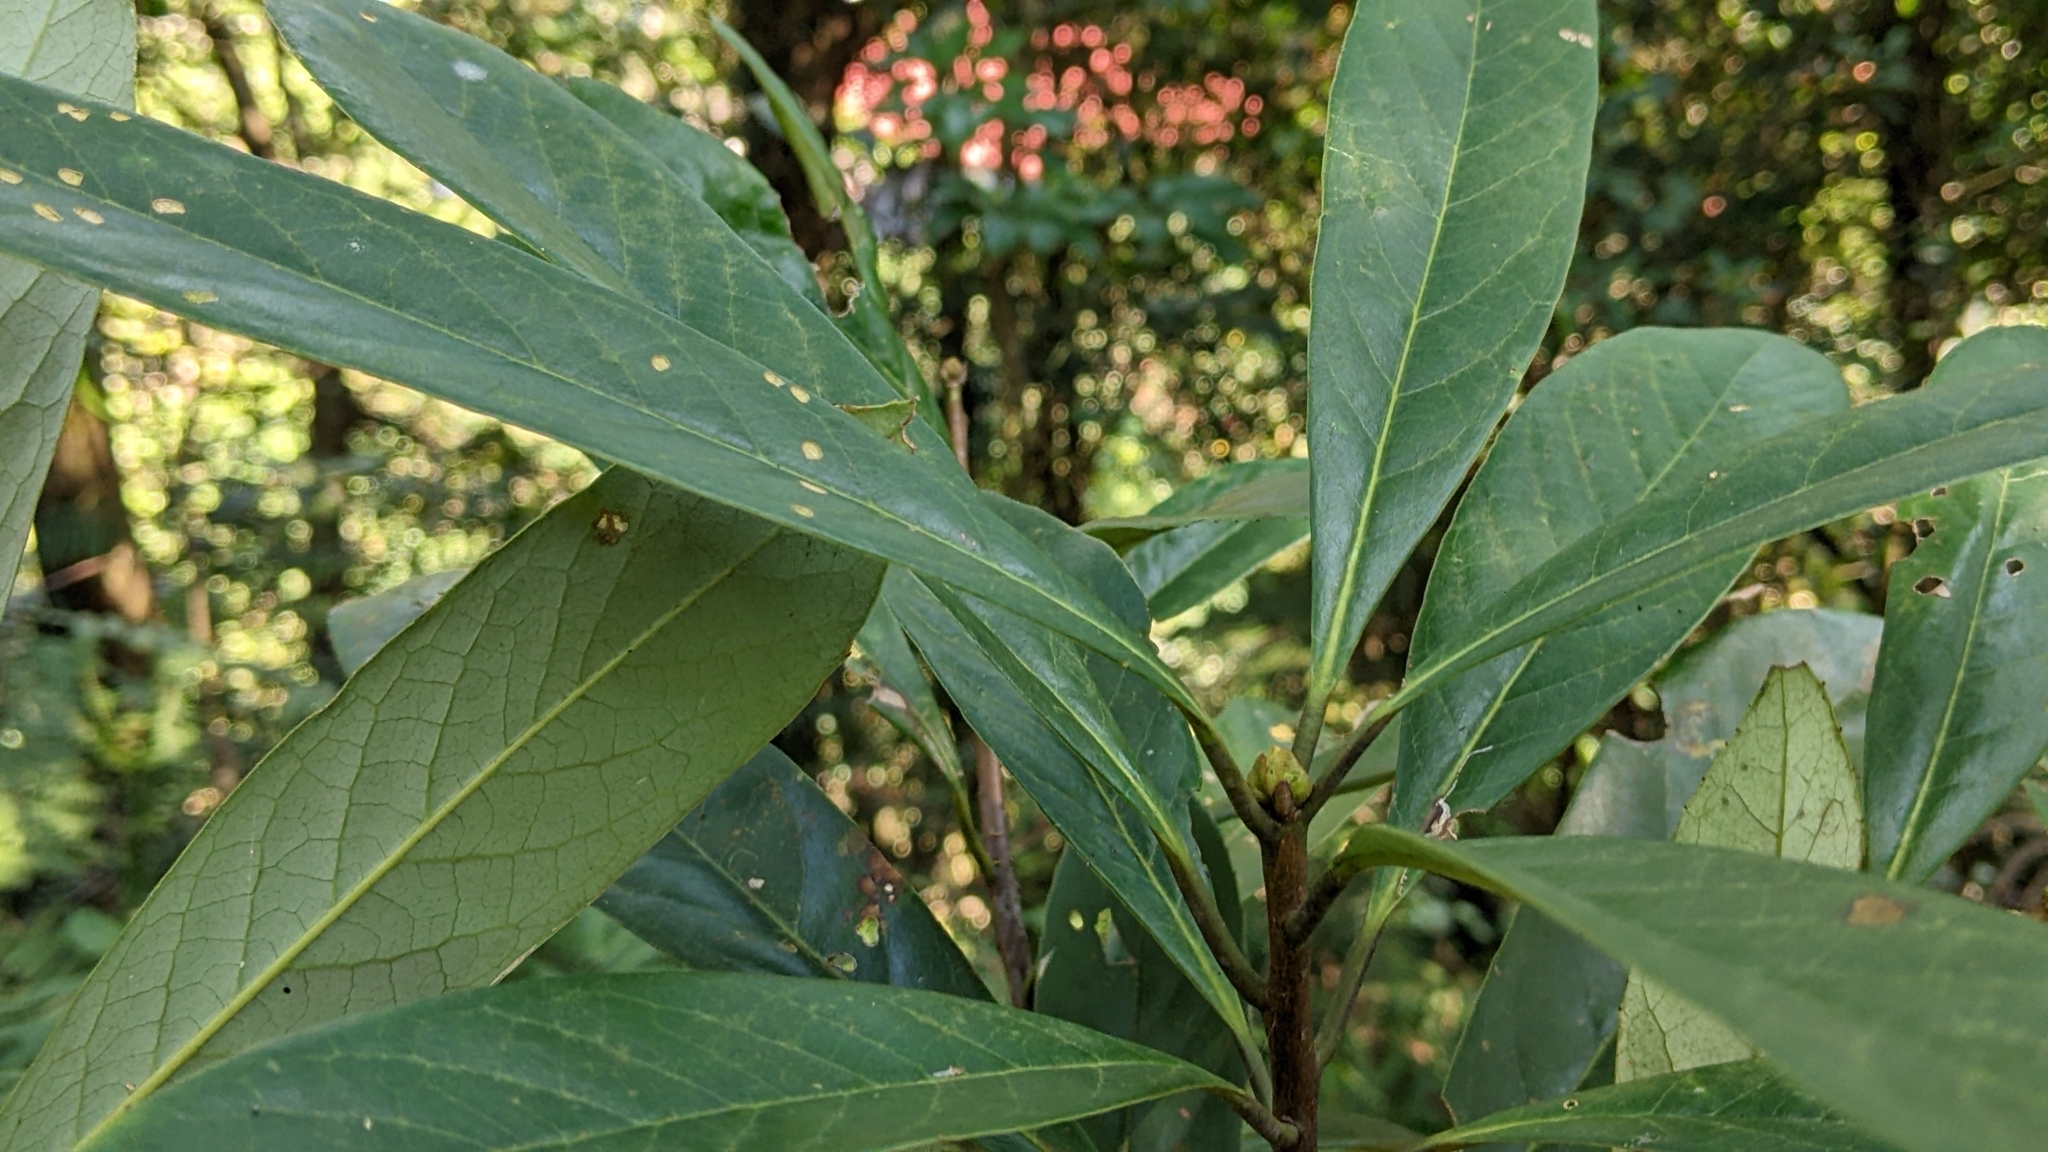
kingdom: Plantae
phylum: Tracheophyta
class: Magnoliopsida
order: Ericales
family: Symplocaceae
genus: Symplocos
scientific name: Symplocos glauca
